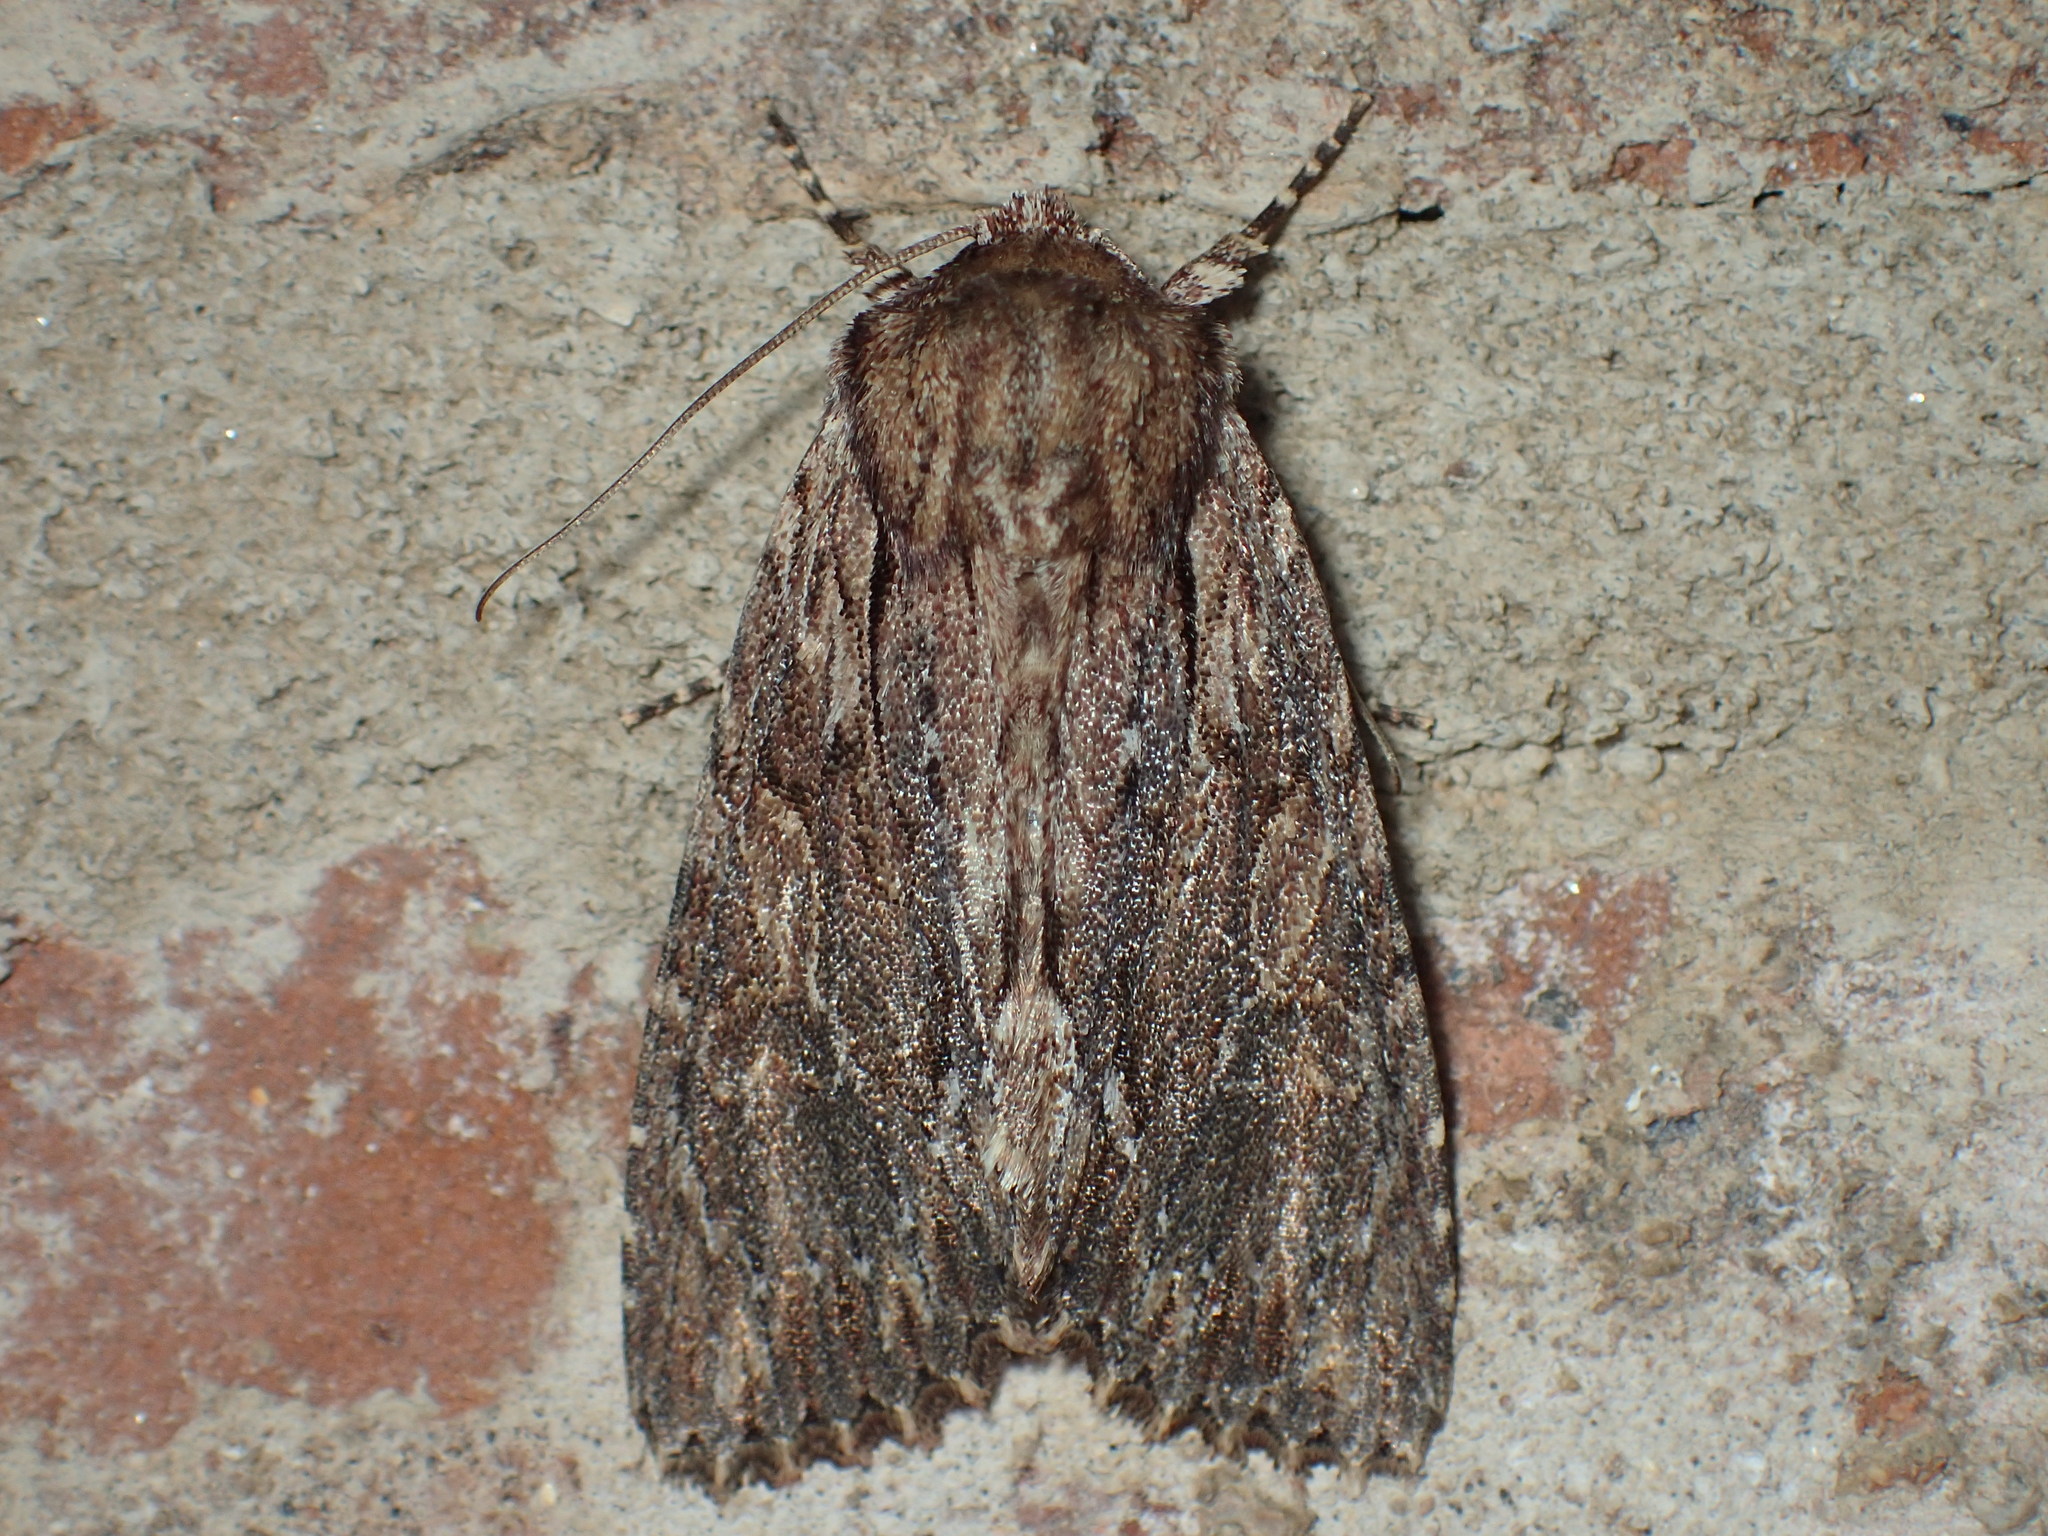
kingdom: Animalia
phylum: Arthropoda
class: Insecta
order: Lepidoptera
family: Noctuidae
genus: Achatia
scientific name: Achatia confusa
